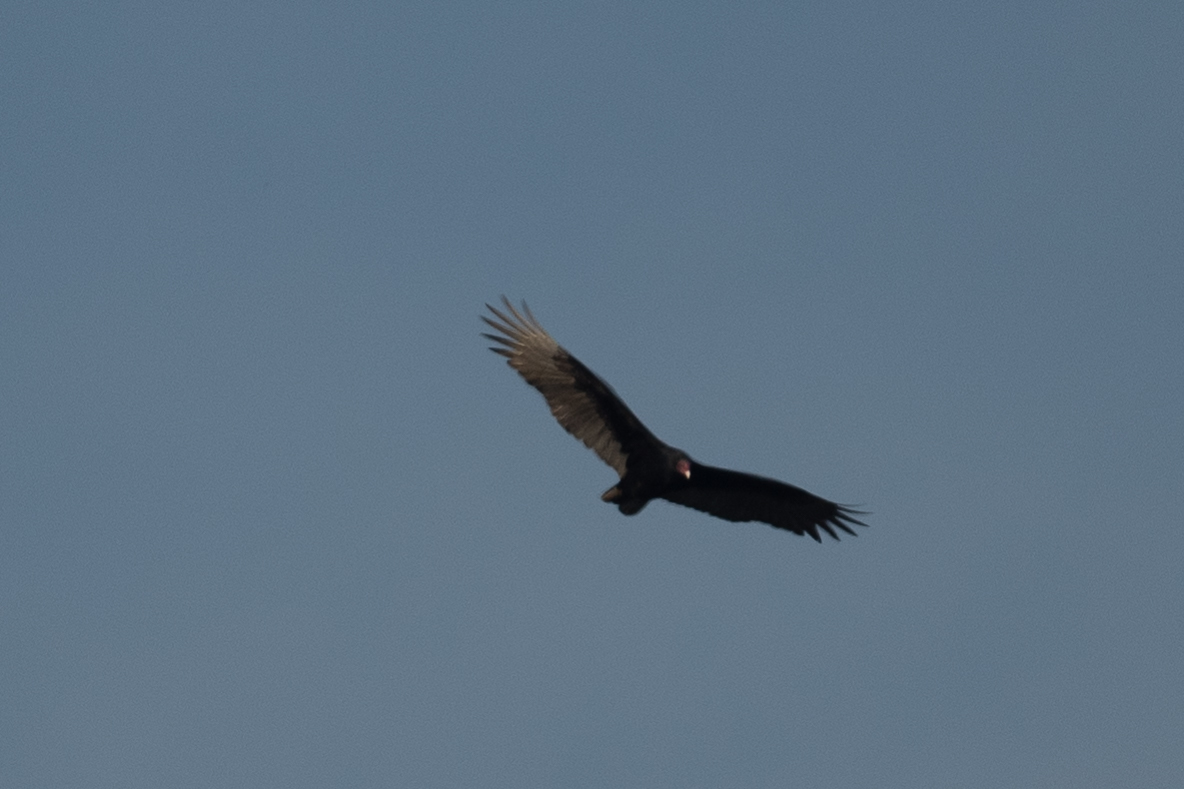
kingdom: Animalia
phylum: Chordata
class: Aves
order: Accipitriformes
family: Cathartidae
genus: Cathartes
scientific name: Cathartes aura
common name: Turkey vulture
